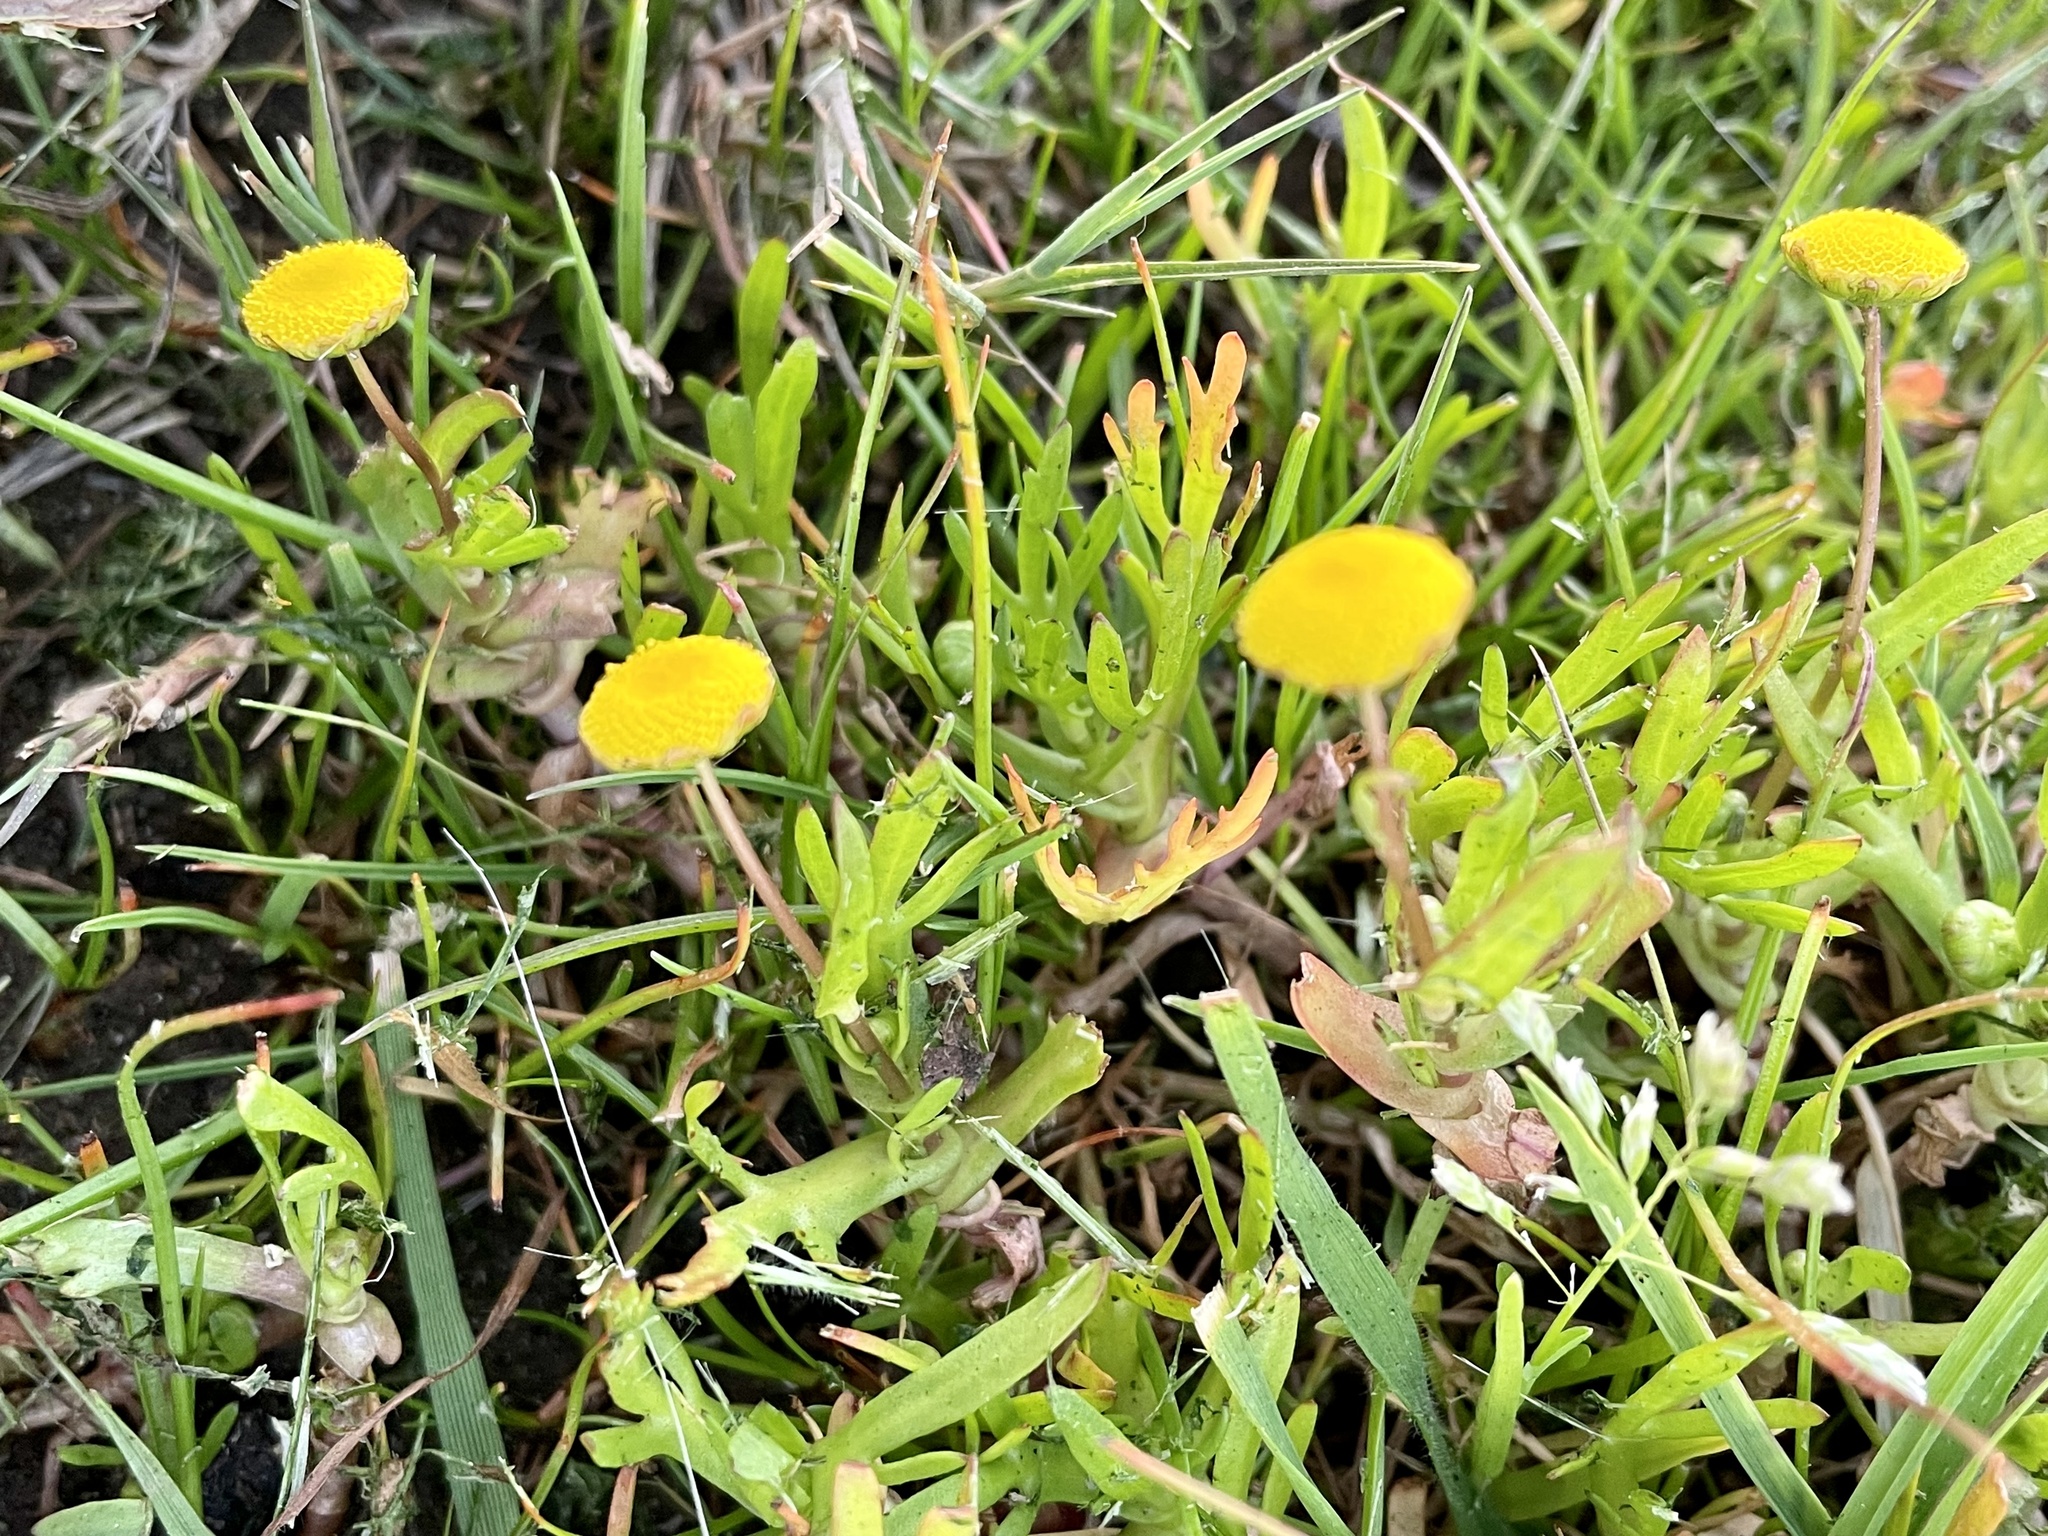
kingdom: Plantae
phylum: Tracheophyta
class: Magnoliopsida
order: Asterales
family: Asteraceae
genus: Cotula
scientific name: Cotula coronopifolia
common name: Buttonweed
